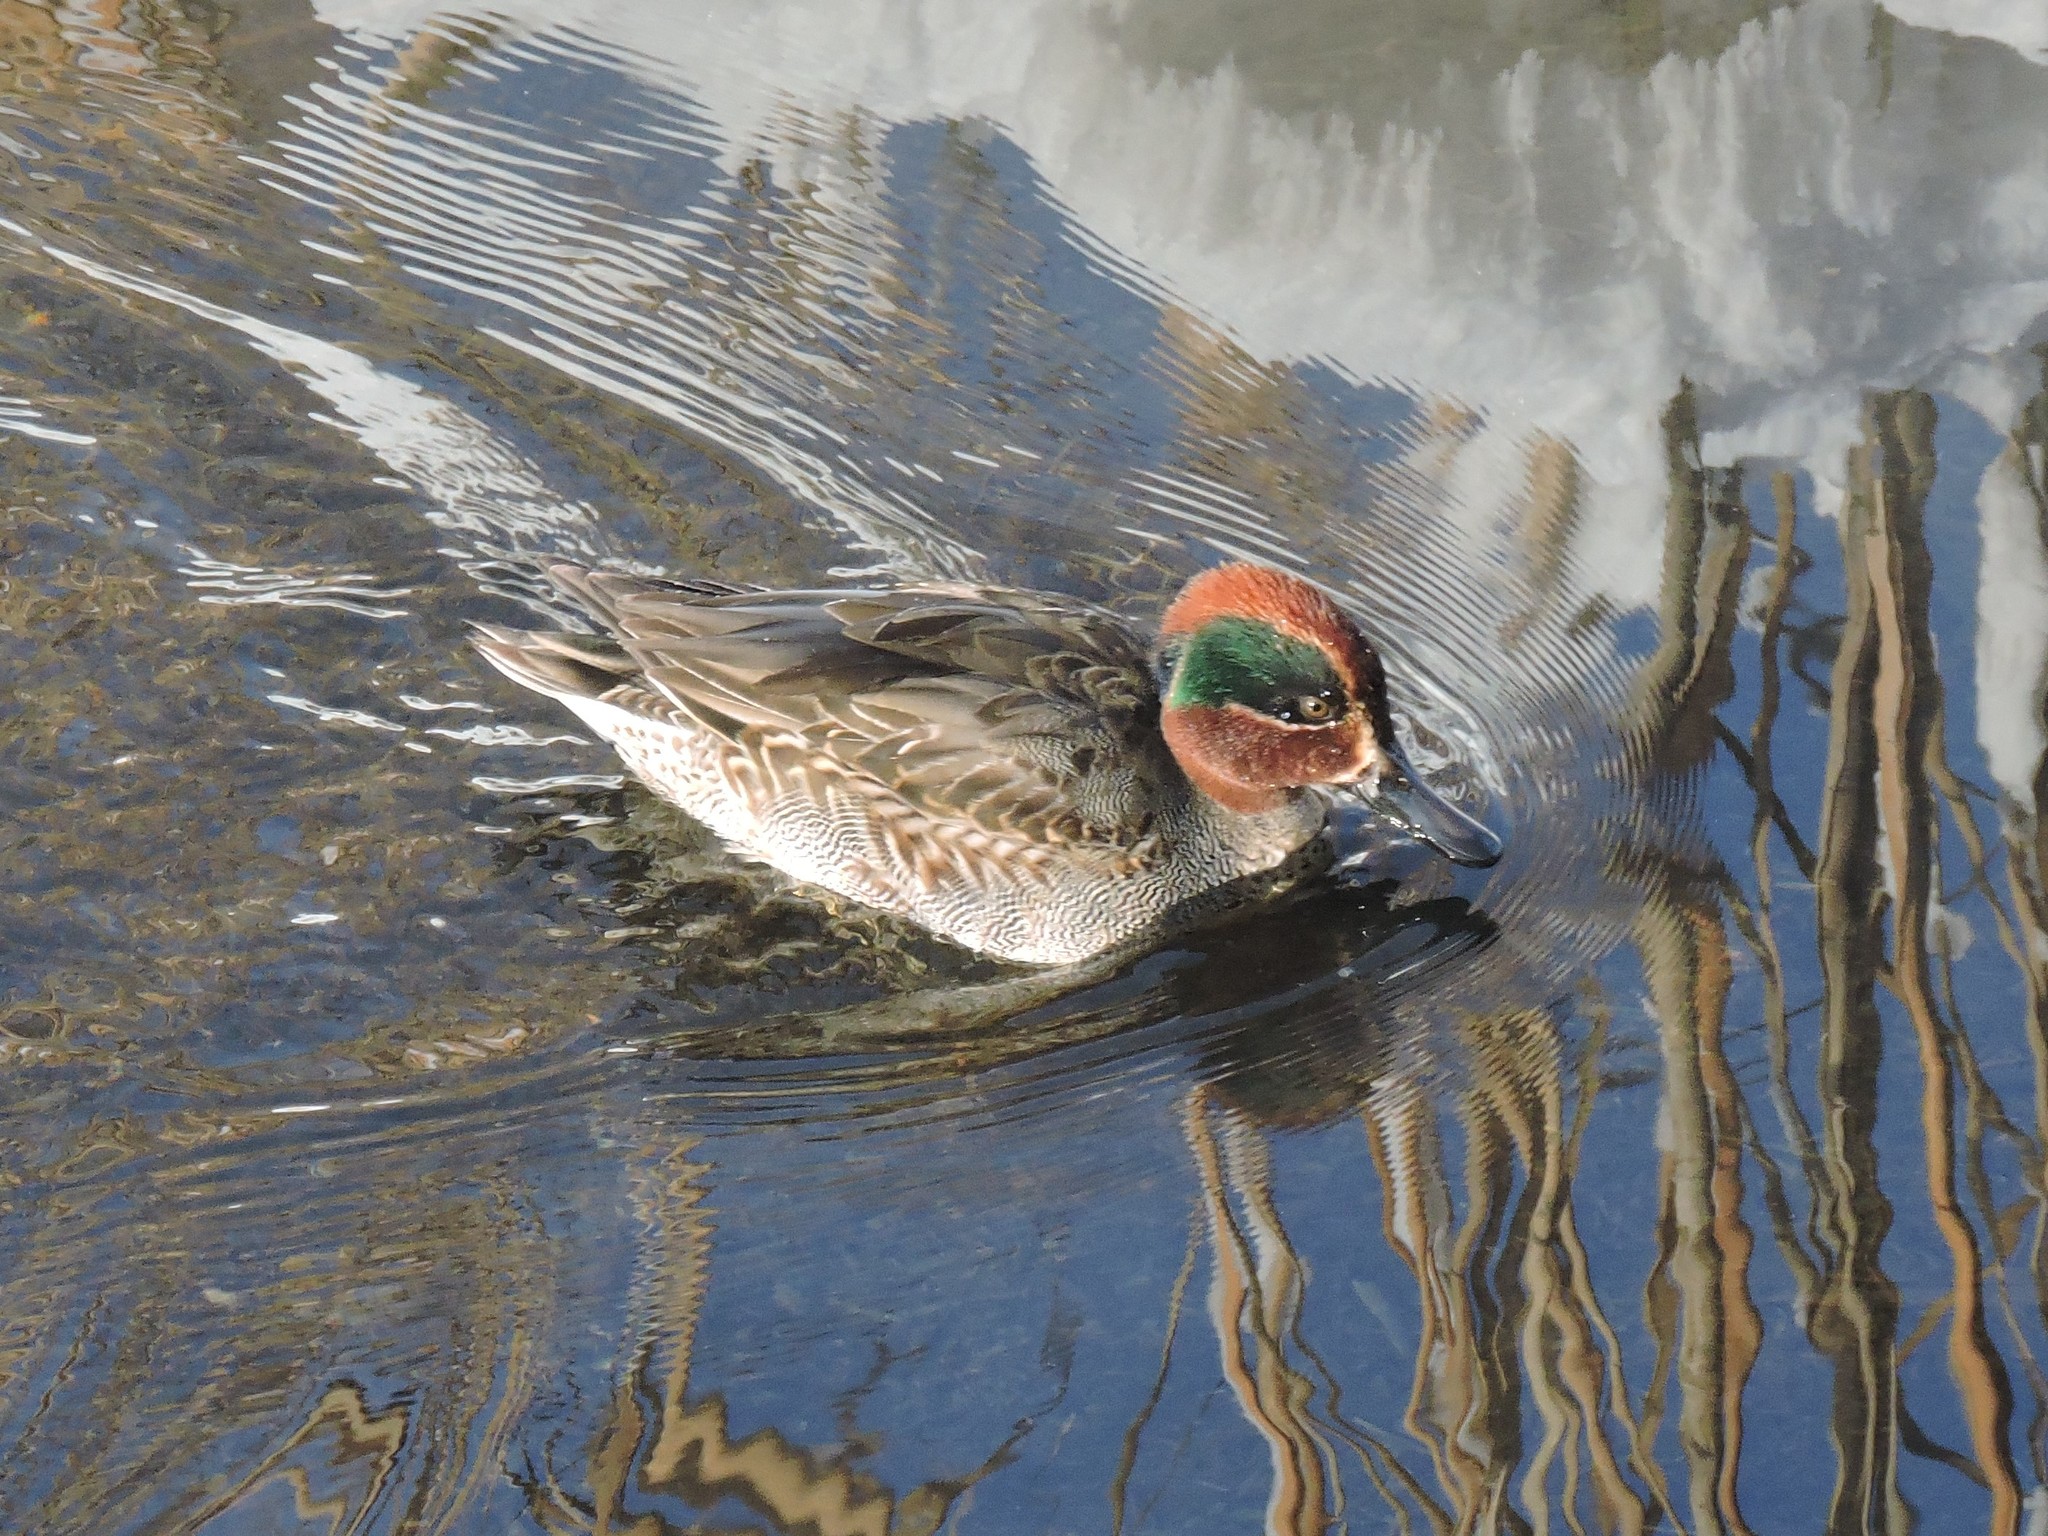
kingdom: Animalia
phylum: Chordata
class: Aves
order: Anseriformes
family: Anatidae
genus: Anas
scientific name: Anas crecca
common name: Eurasian teal
